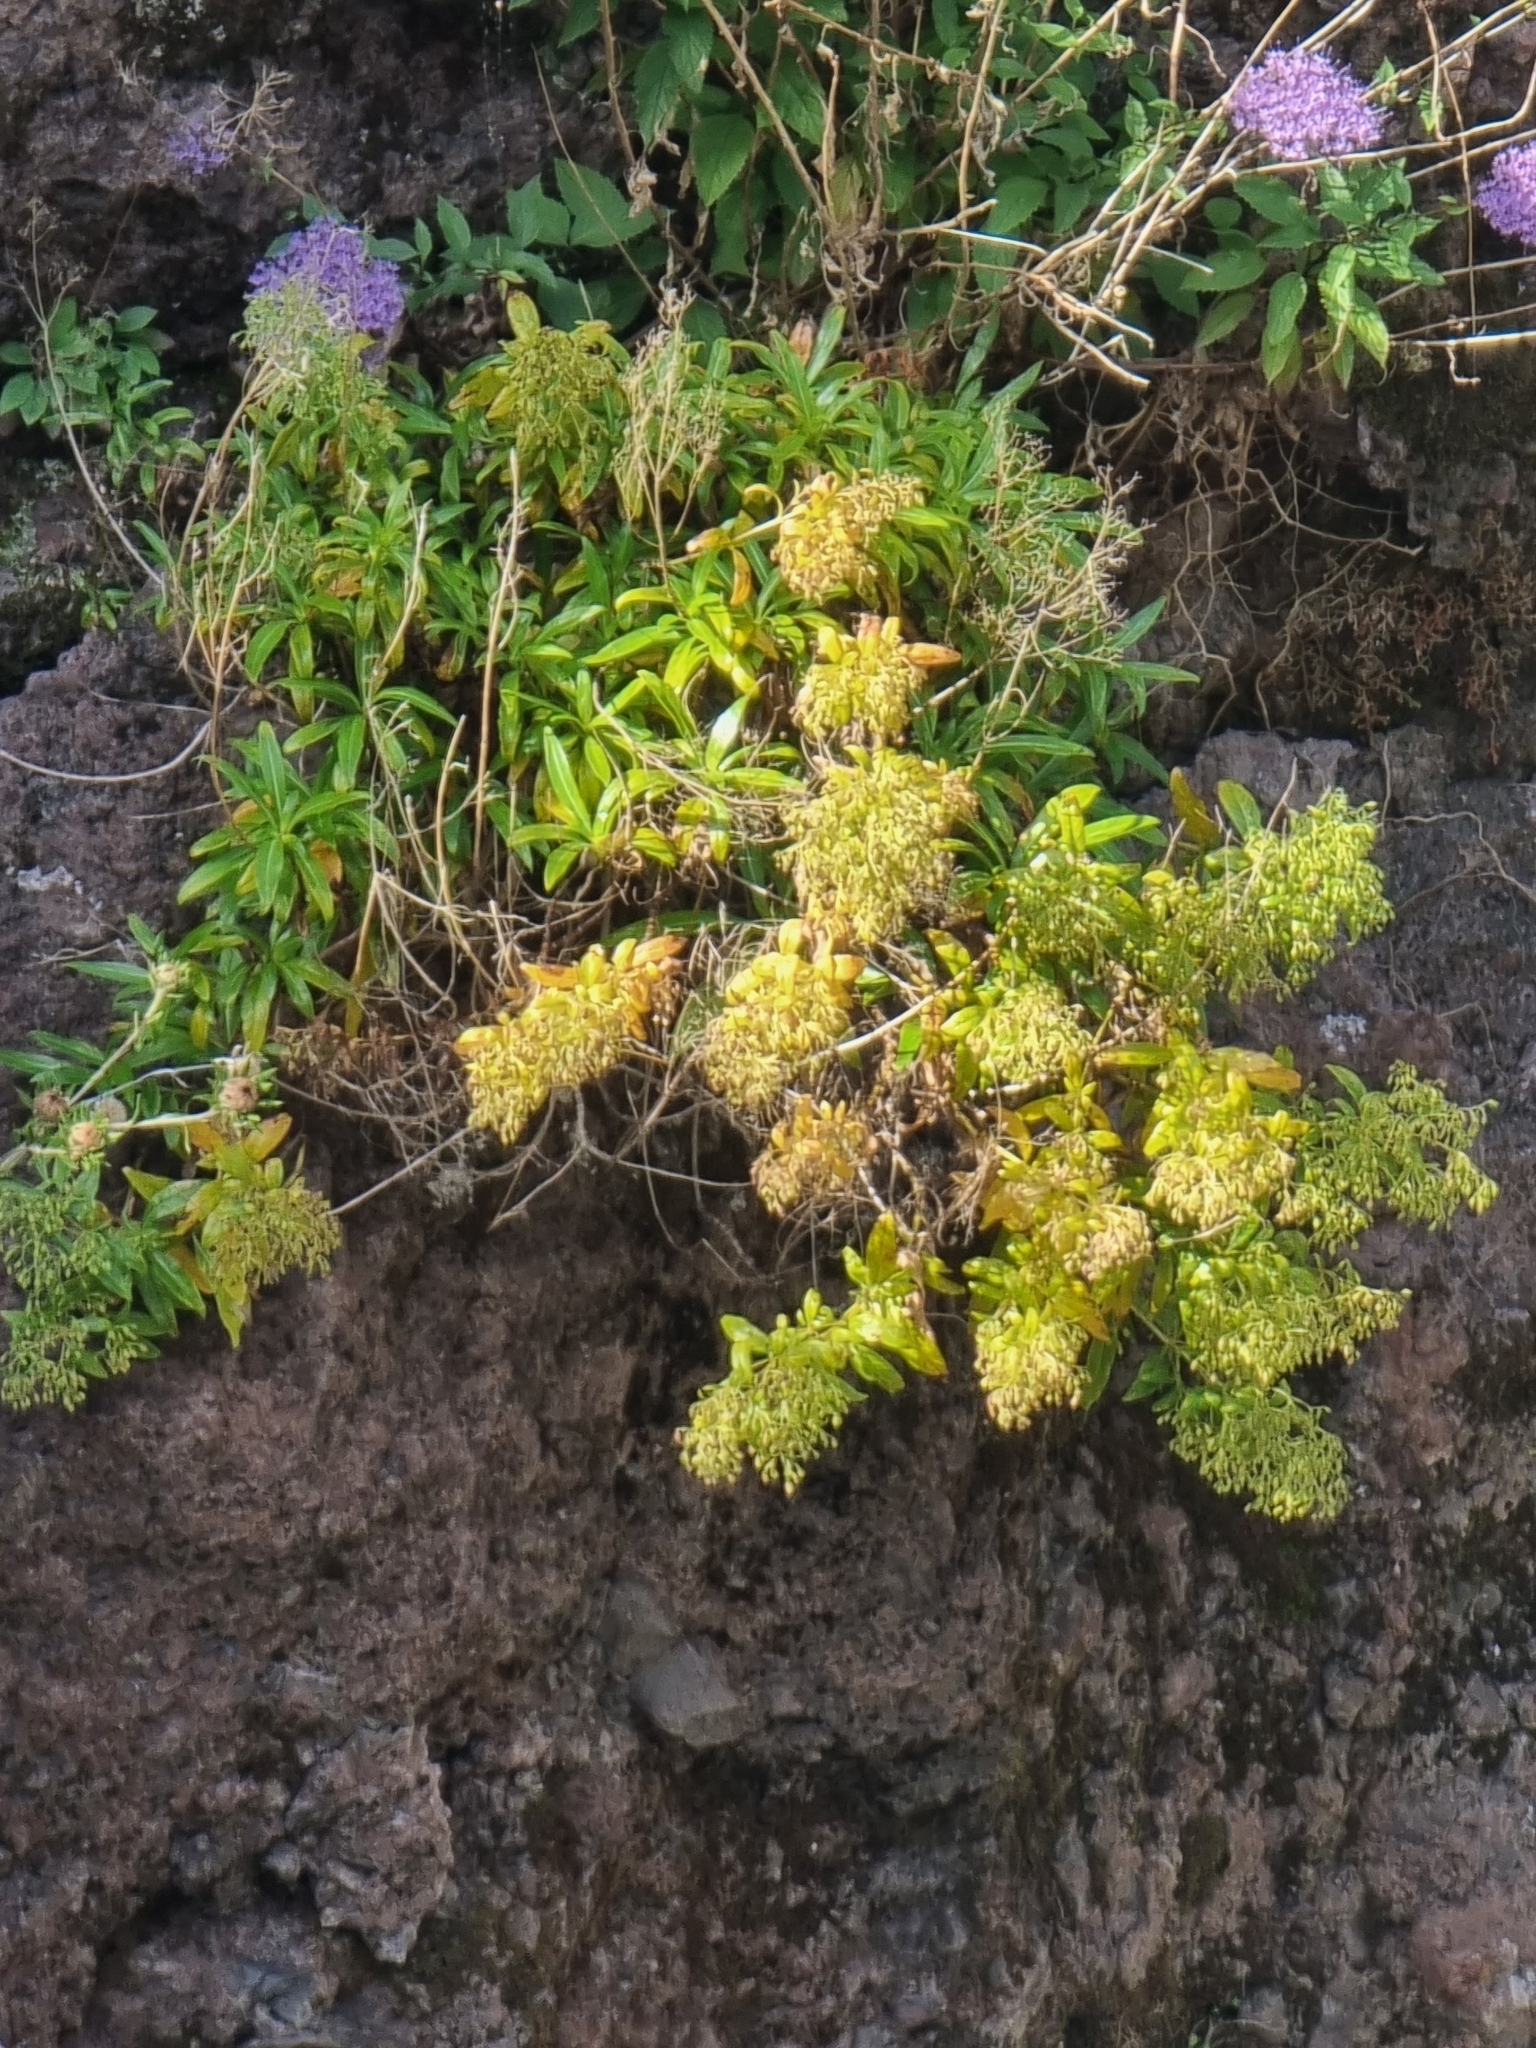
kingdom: Plantae
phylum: Tracheophyta
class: Magnoliopsida
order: Gentianales
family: Rubiaceae
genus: Phyllis
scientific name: Phyllis nobla
